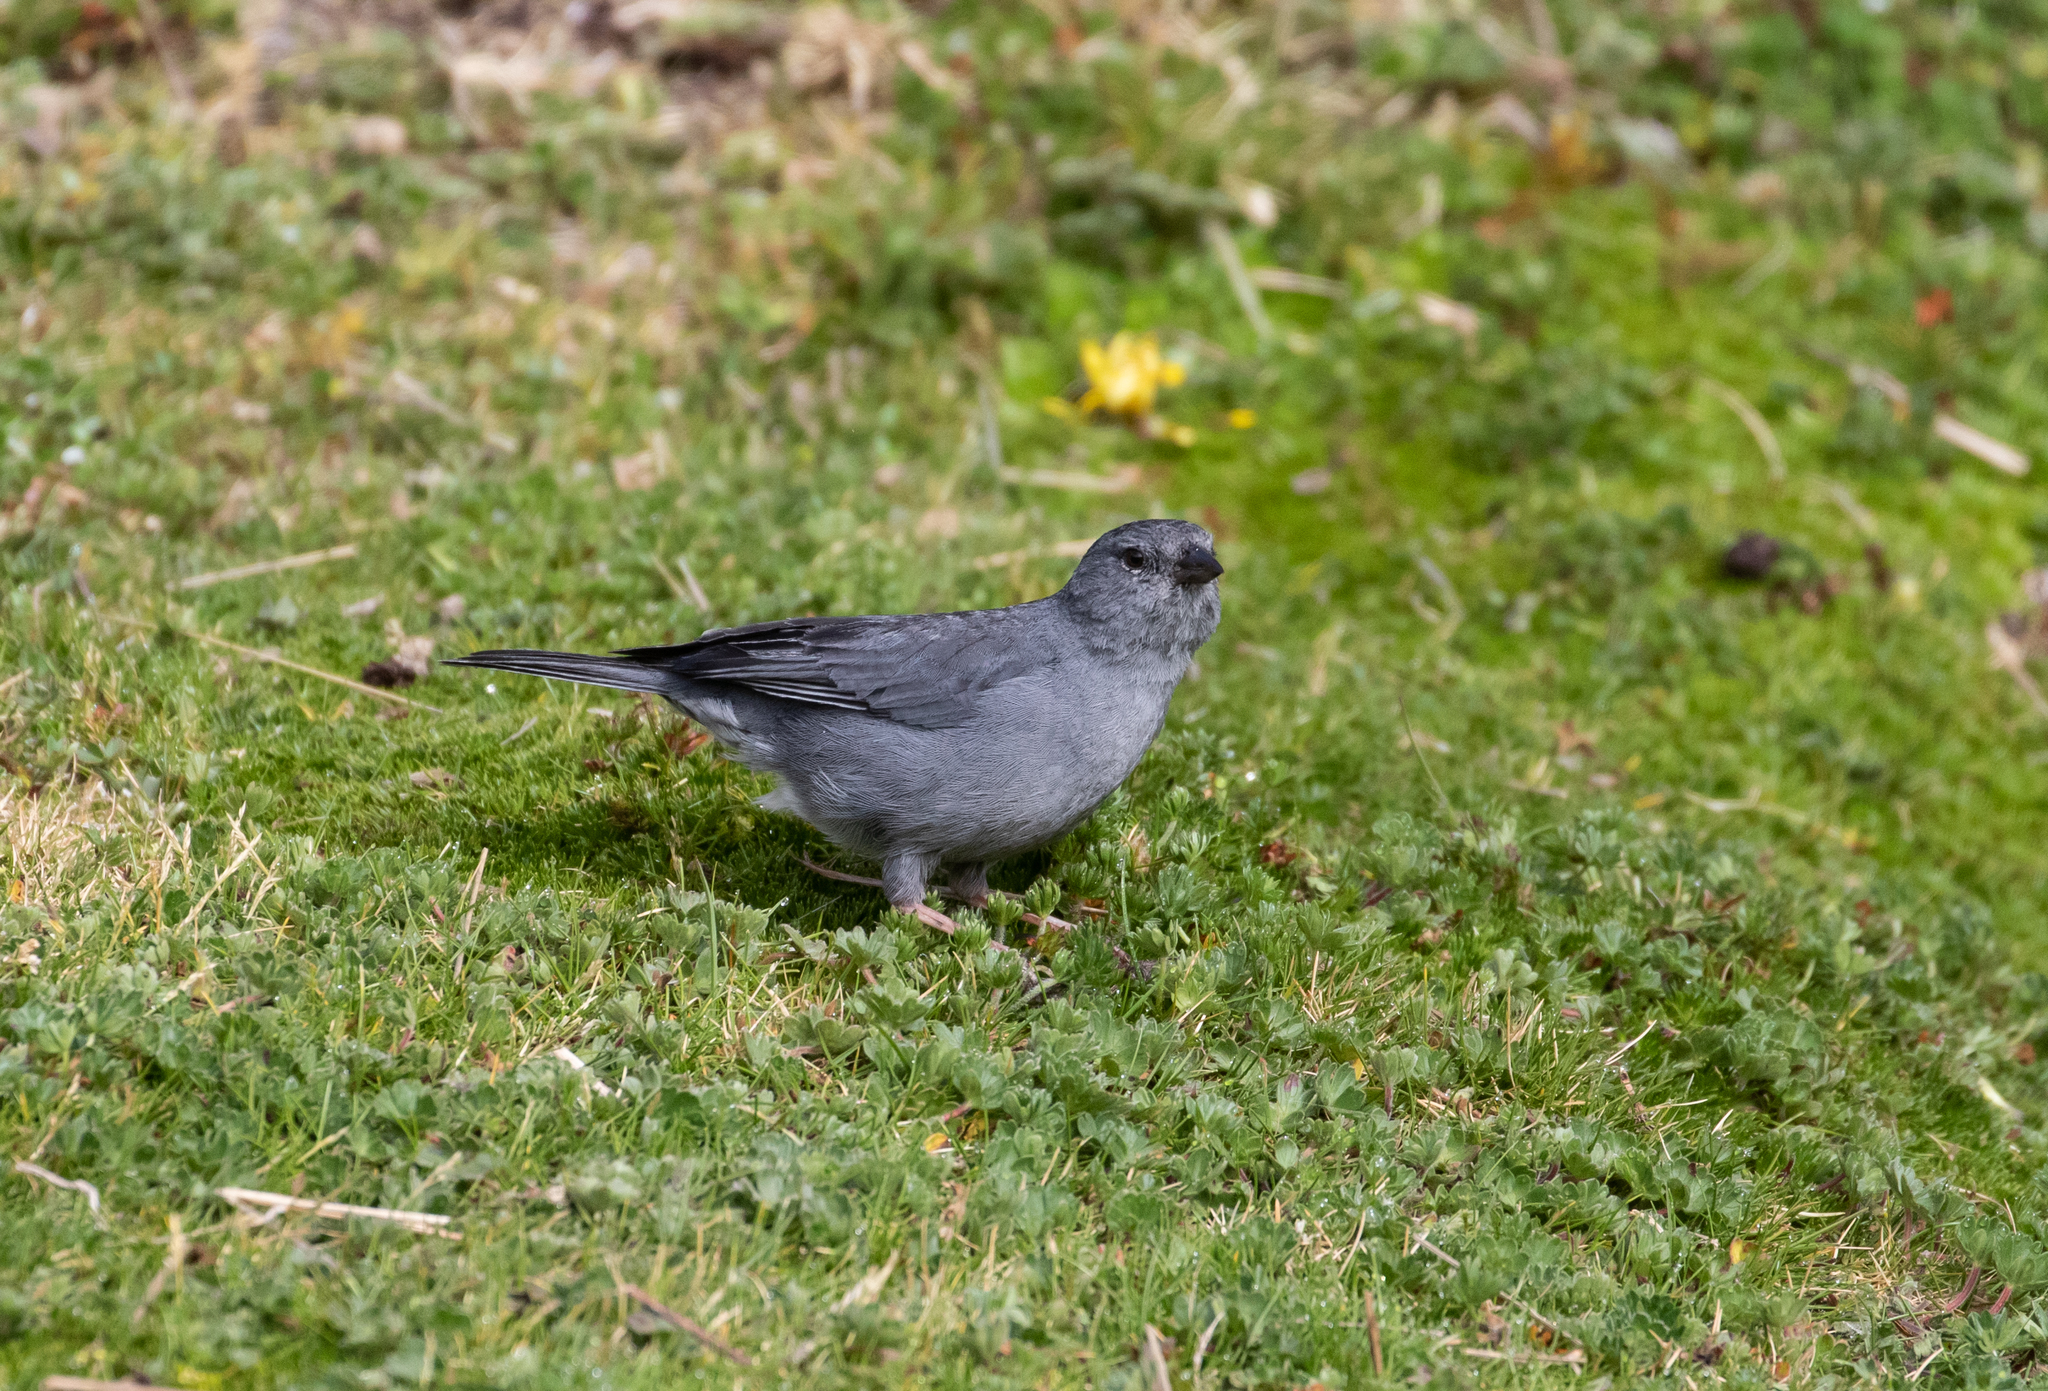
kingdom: Animalia
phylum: Chordata
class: Aves
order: Passeriformes
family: Thraupidae
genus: Geospizopsis
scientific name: Geospizopsis unicolor
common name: Plumbeous sierra-finch
